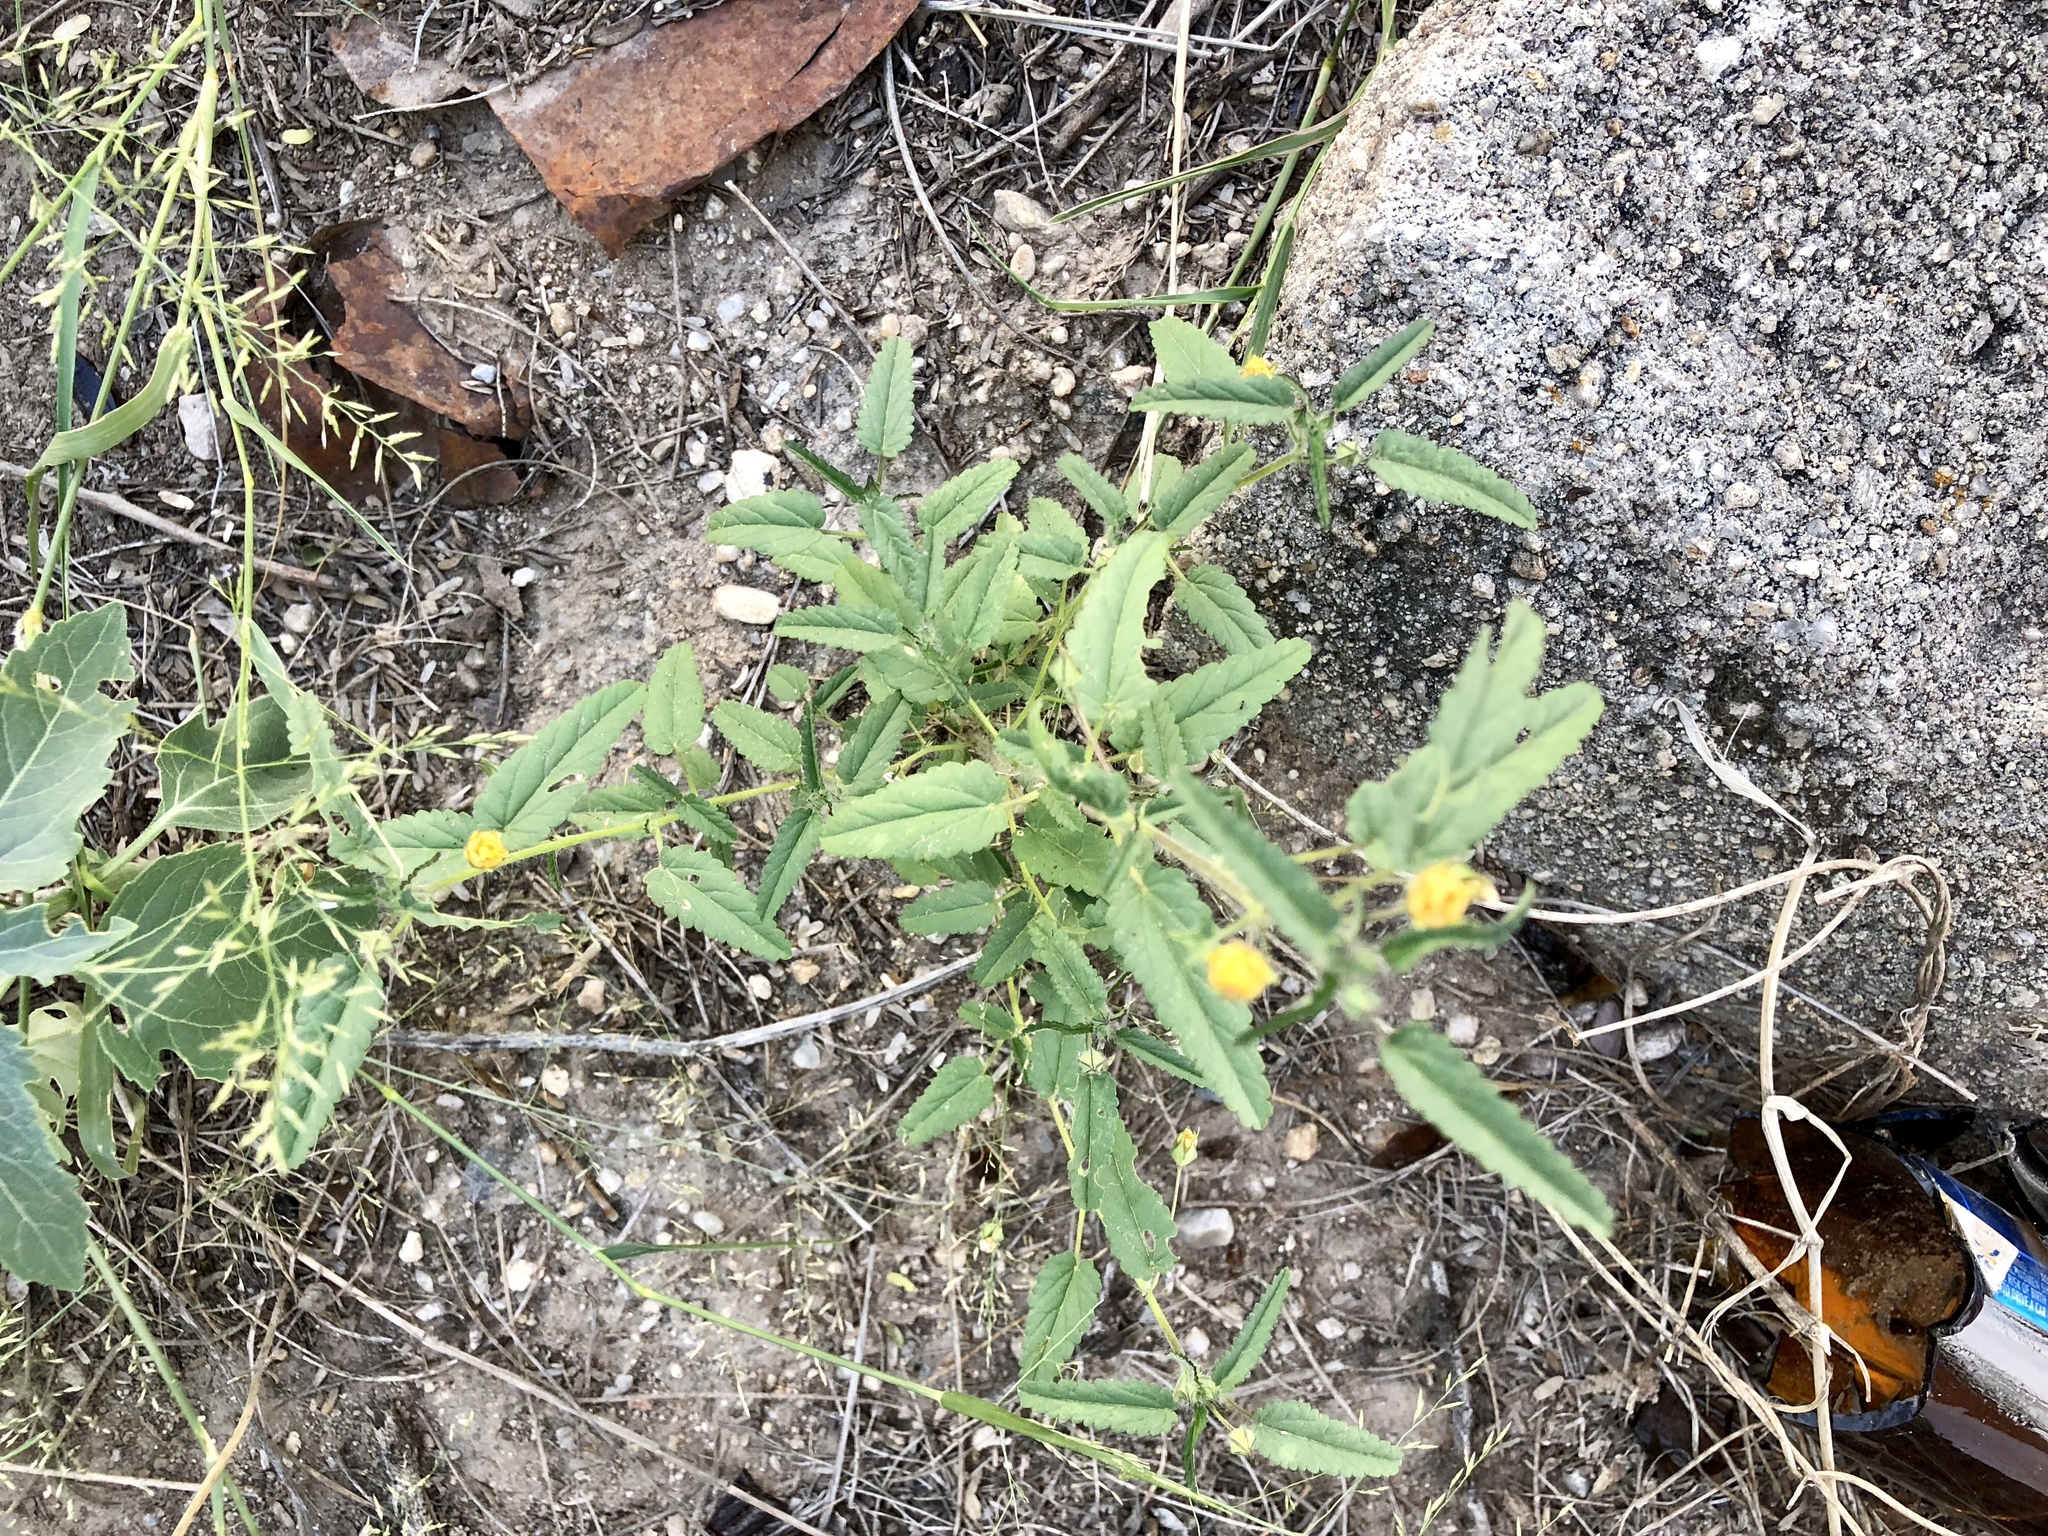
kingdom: Plantae
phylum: Tracheophyta
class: Magnoliopsida
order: Malvales
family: Malvaceae
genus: Sida
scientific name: Sida abutilifolia
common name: Spreading fanpetals
